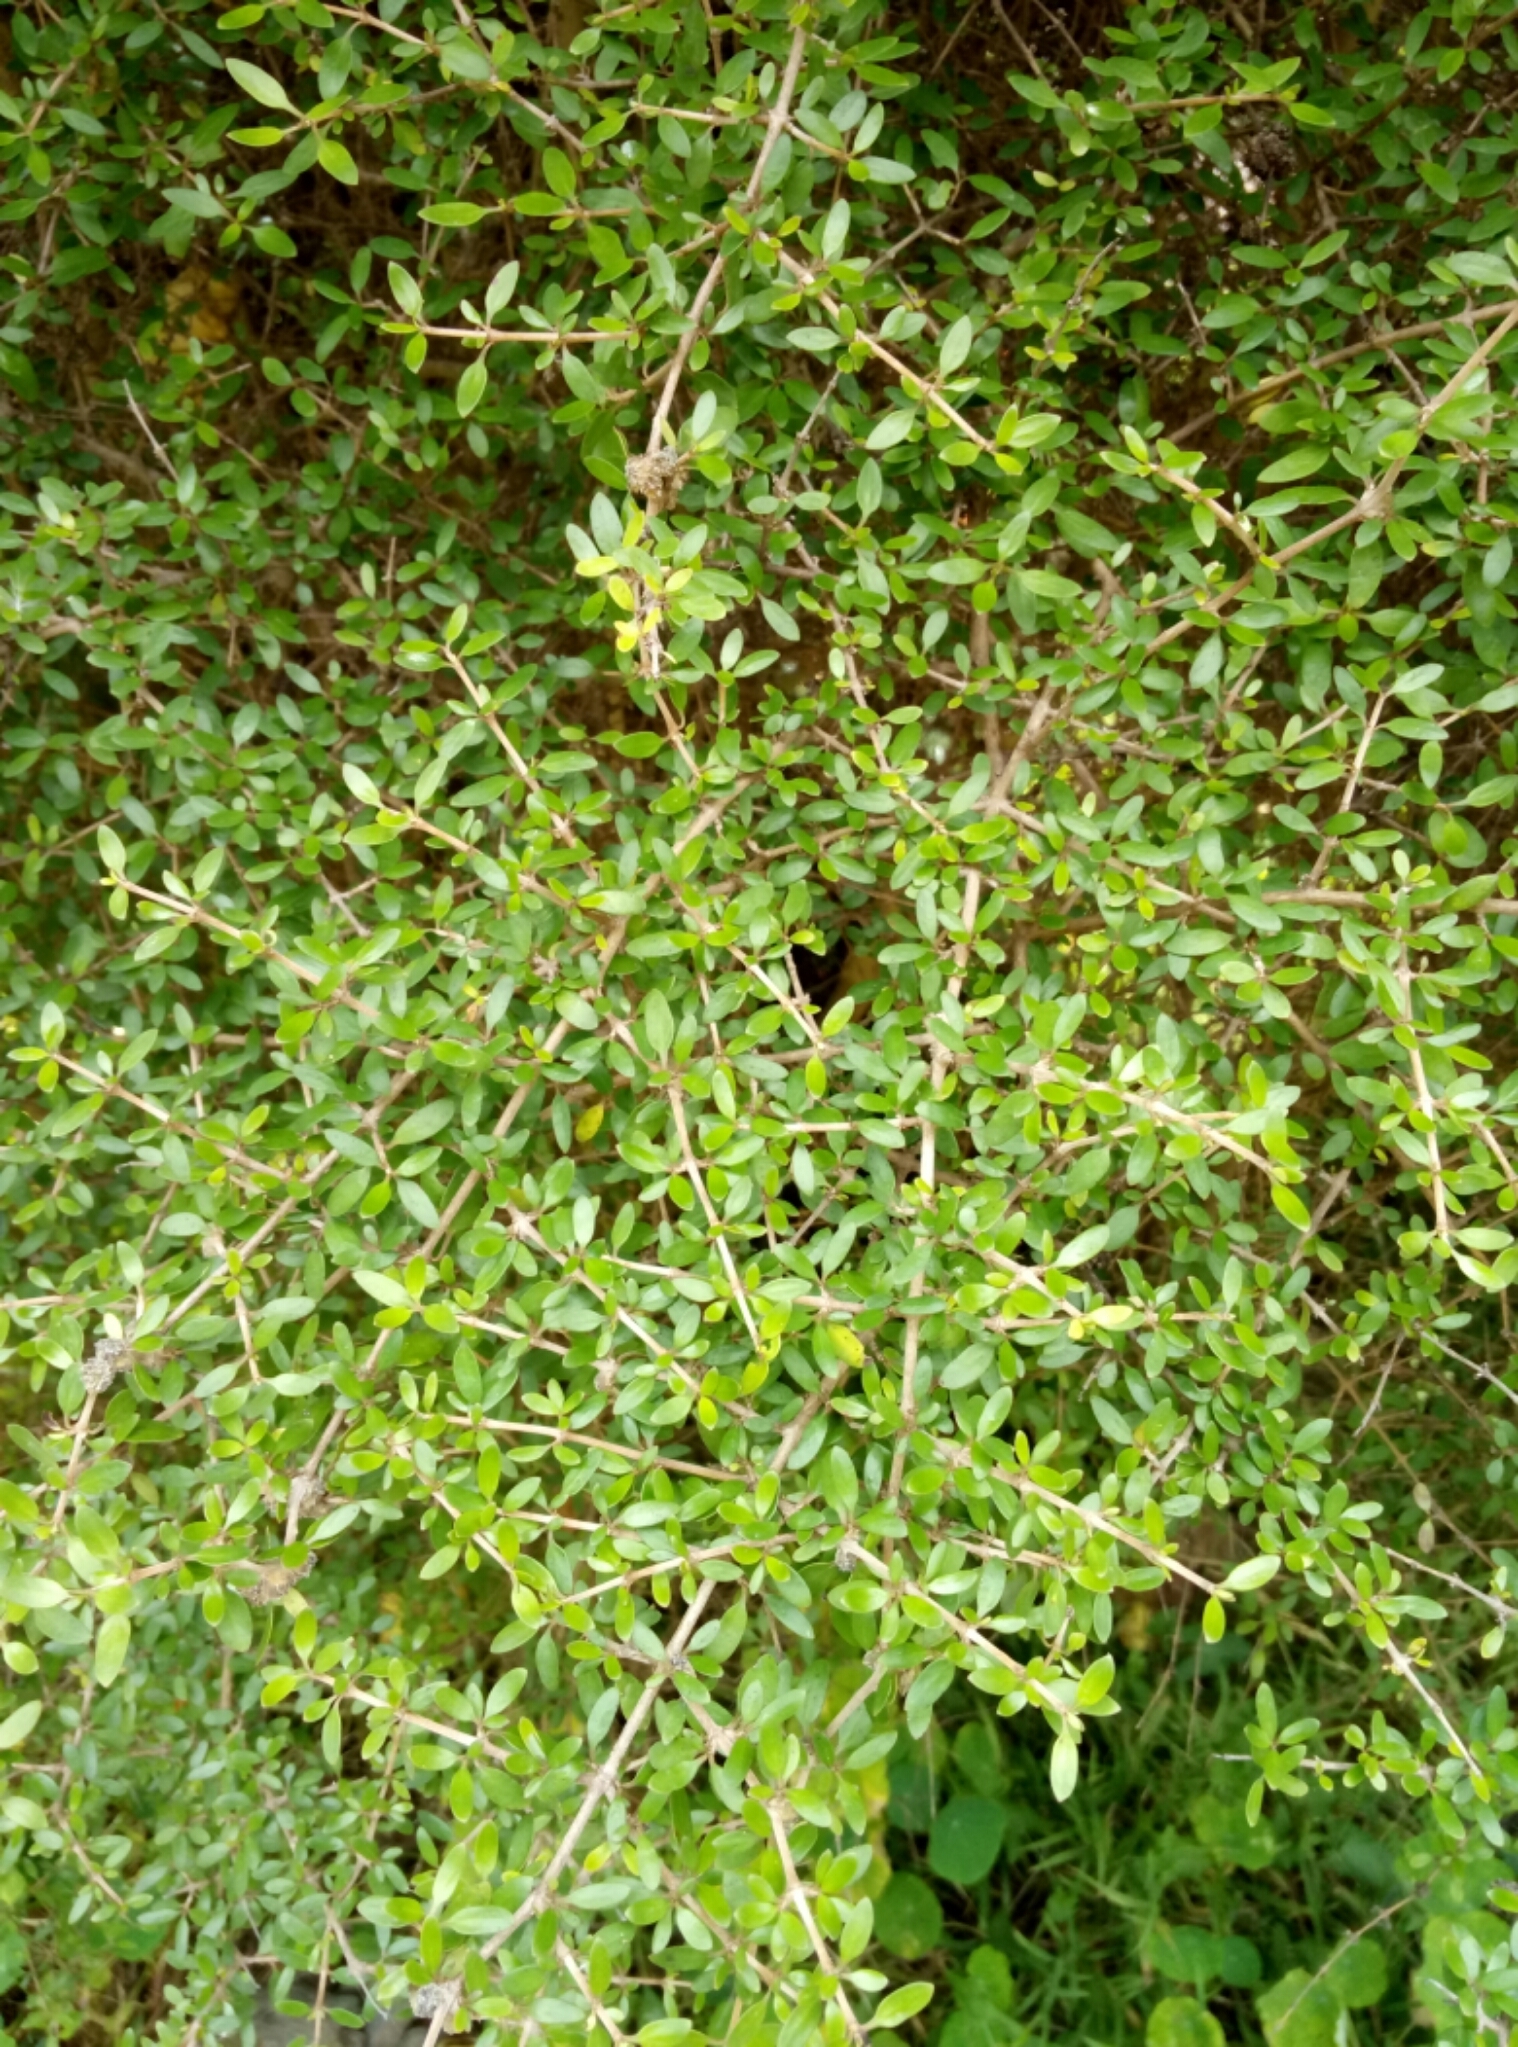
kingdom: Plantae
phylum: Tracheophyta
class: Magnoliopsida
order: Gentianales
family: Rubiaceae
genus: Coprosma
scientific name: Coprosma propinqua
